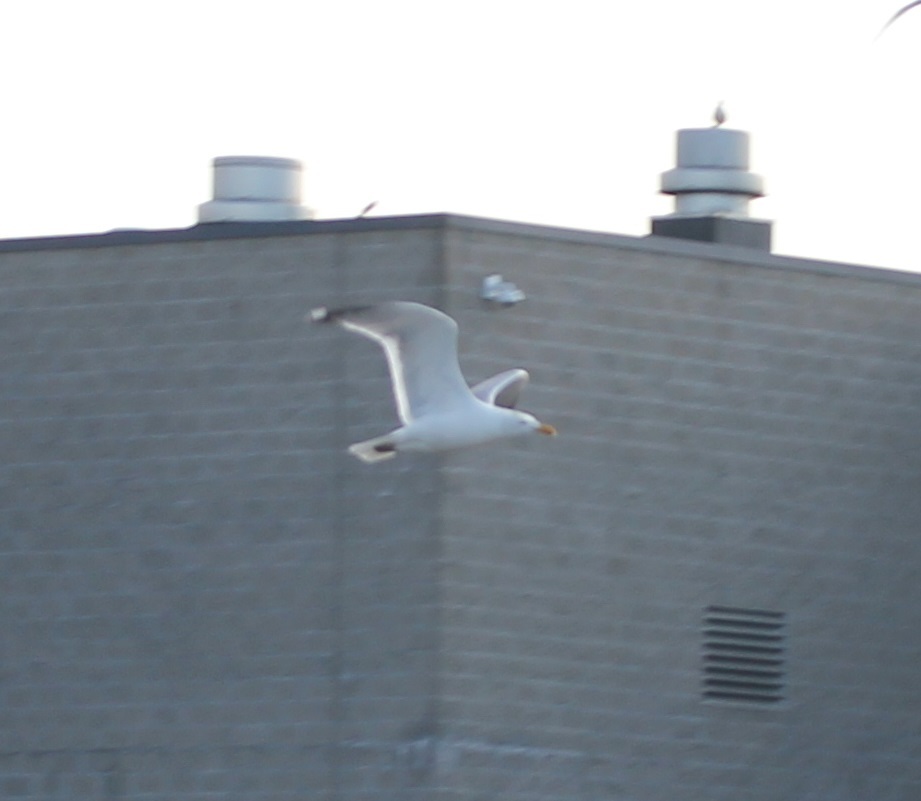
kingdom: Animalia
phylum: Chordata
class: Aves
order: Charadriiformes
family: Laridae
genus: Larus
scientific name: Larus argentatus
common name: Herring gull
